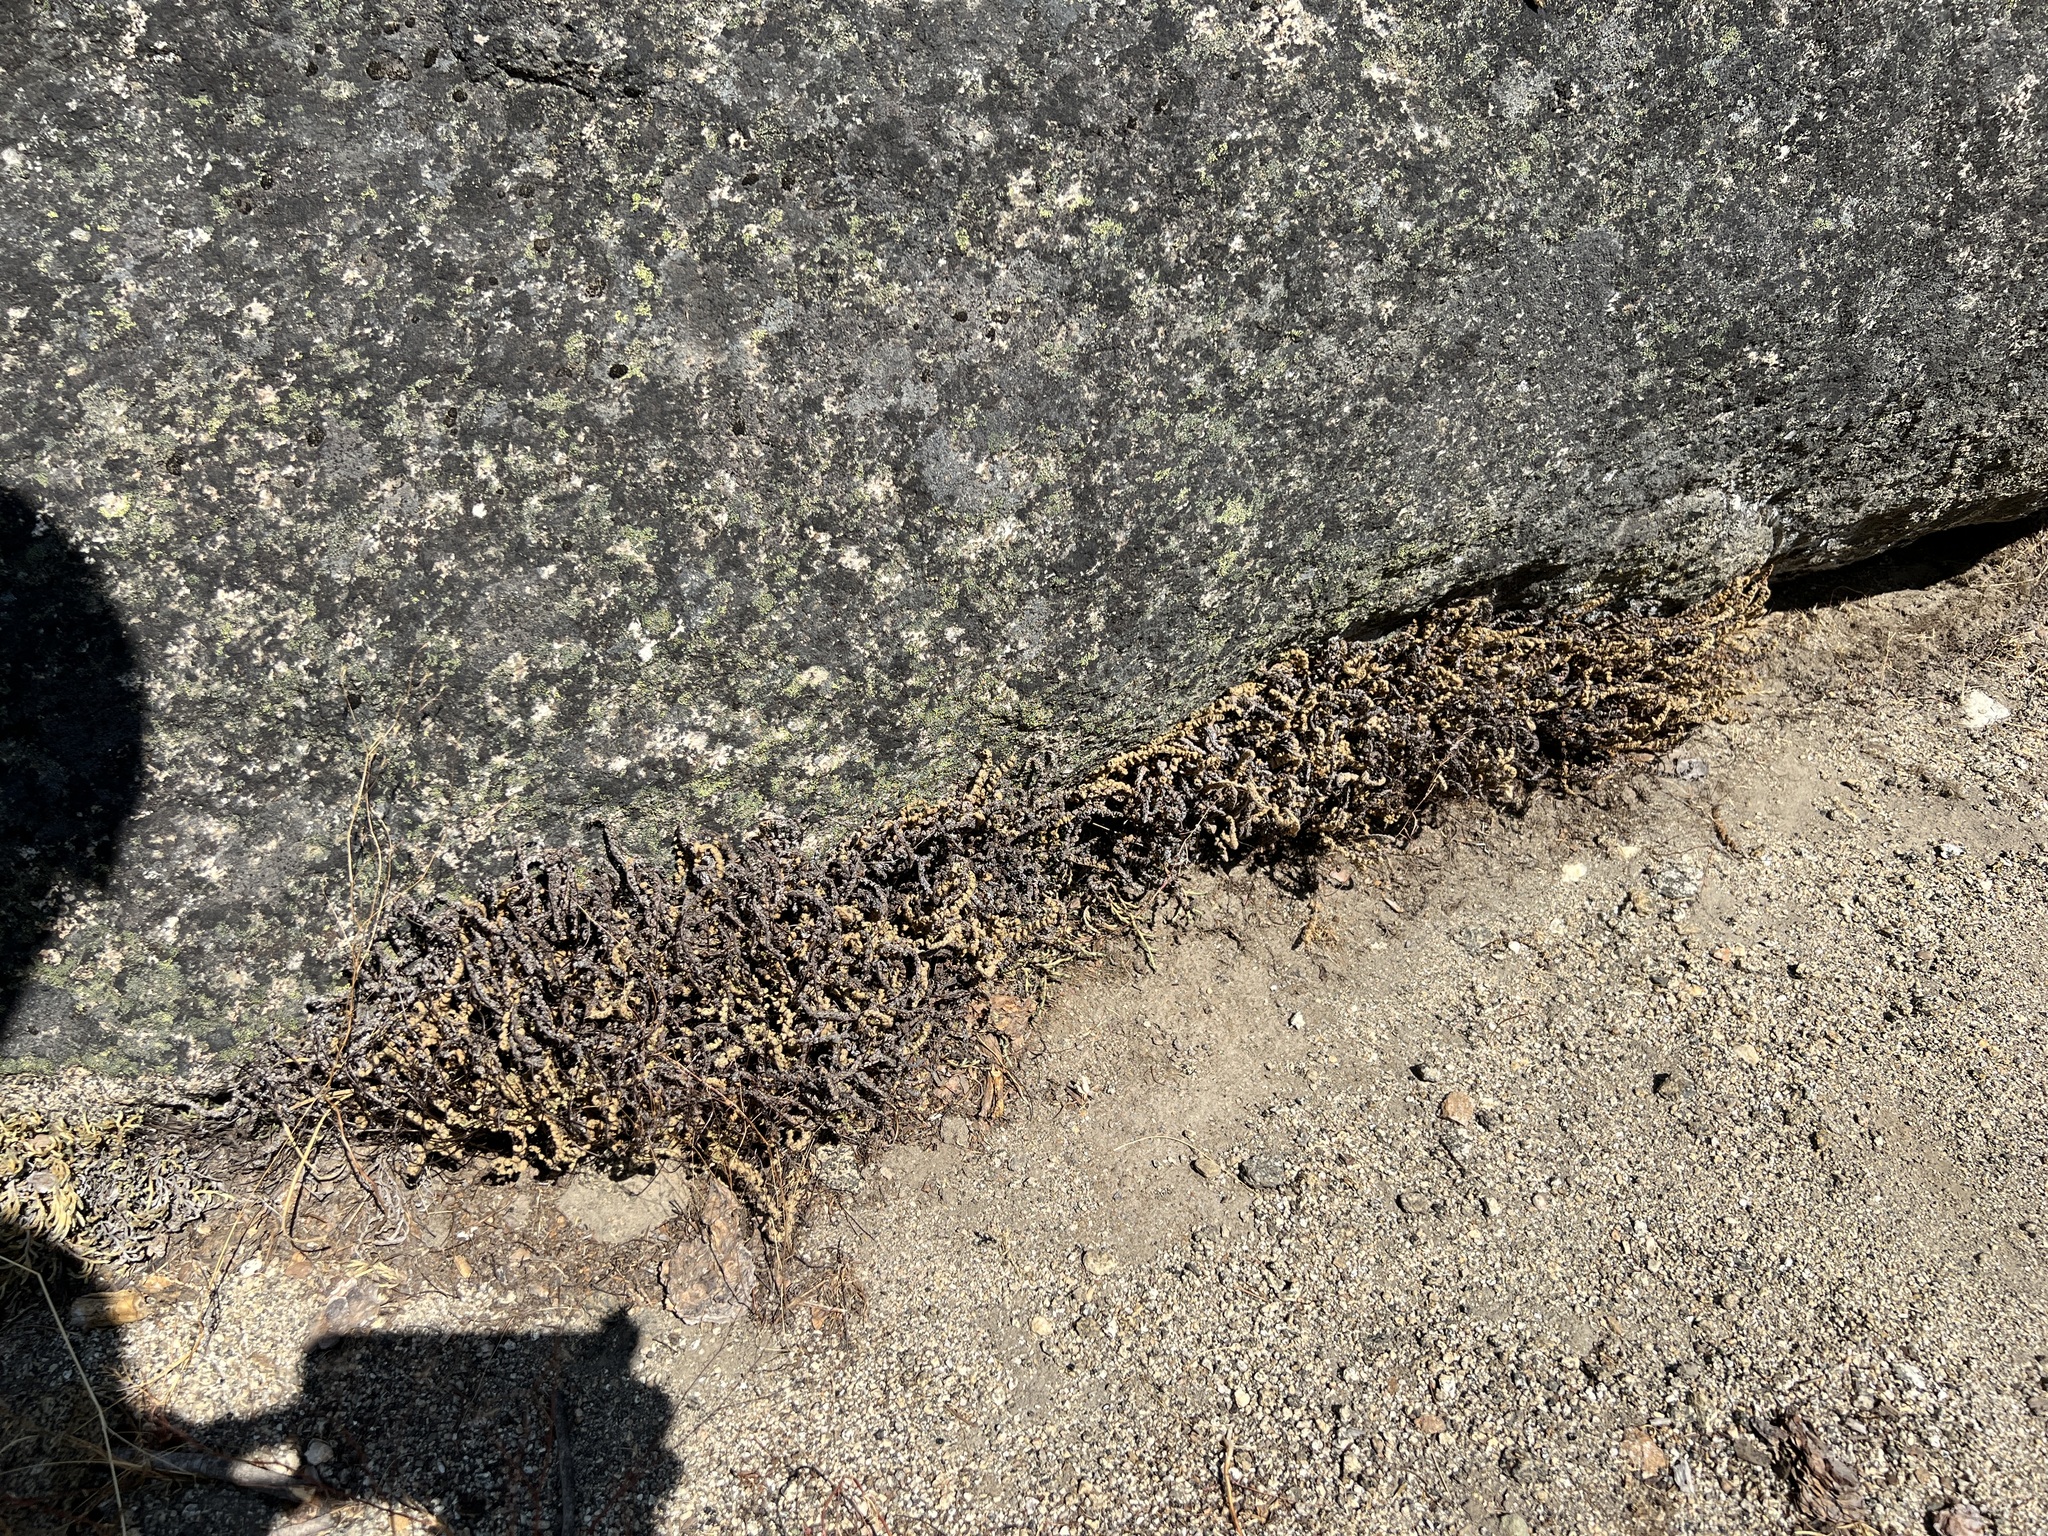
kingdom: Plantae
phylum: Tracheophyta
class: Polypodiopsida
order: Polypodiales
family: Pteridaceae
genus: Myriopteris
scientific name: Myriopteris gracillima
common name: Lace fern
